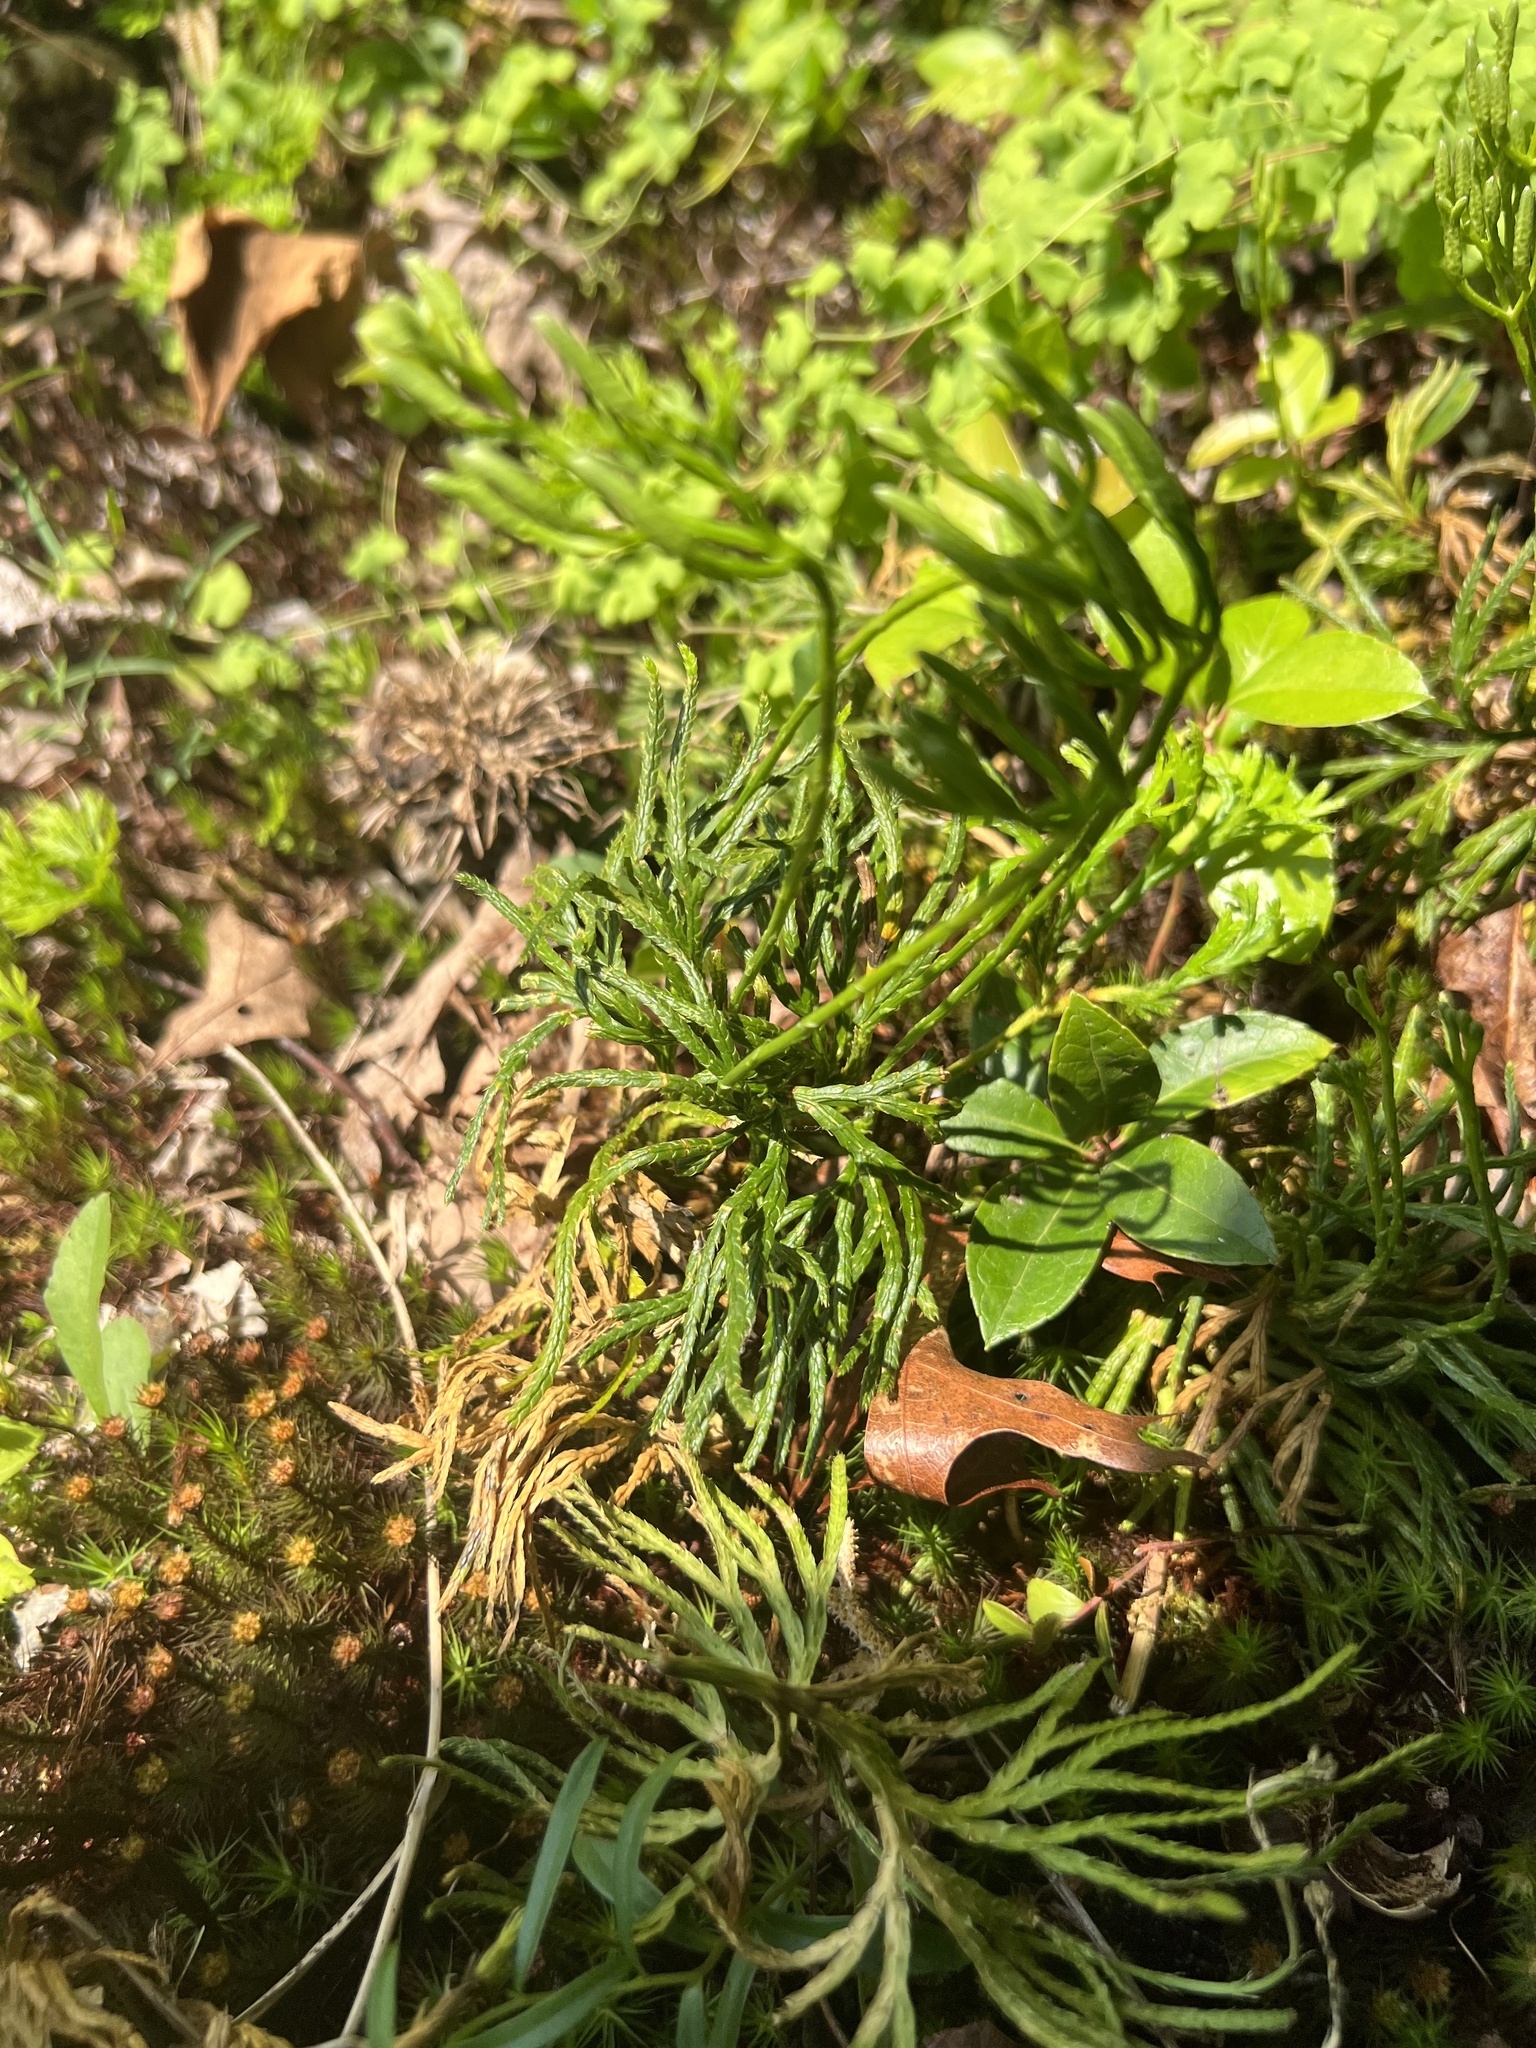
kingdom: Plantae
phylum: Tracheophyta
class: Lycopodiopsida
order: Lycopodiales
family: Lycopodiaceae
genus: Diphasiastrum
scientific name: Diphasiastrum digitatum
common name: Southern running-pine
